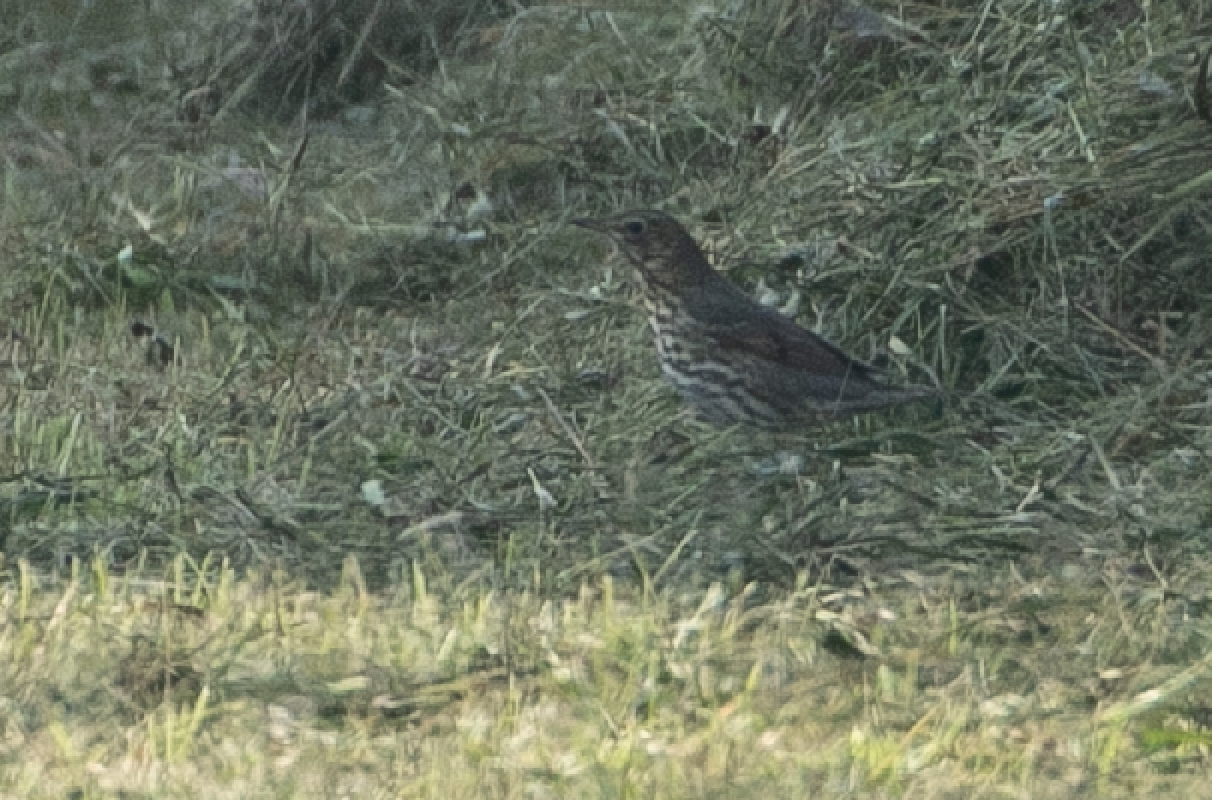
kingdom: Animalia
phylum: Chordata
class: Aves
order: Passeriformes
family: Turdidae
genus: Turdus
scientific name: Turdus philomelos
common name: Song thrush
